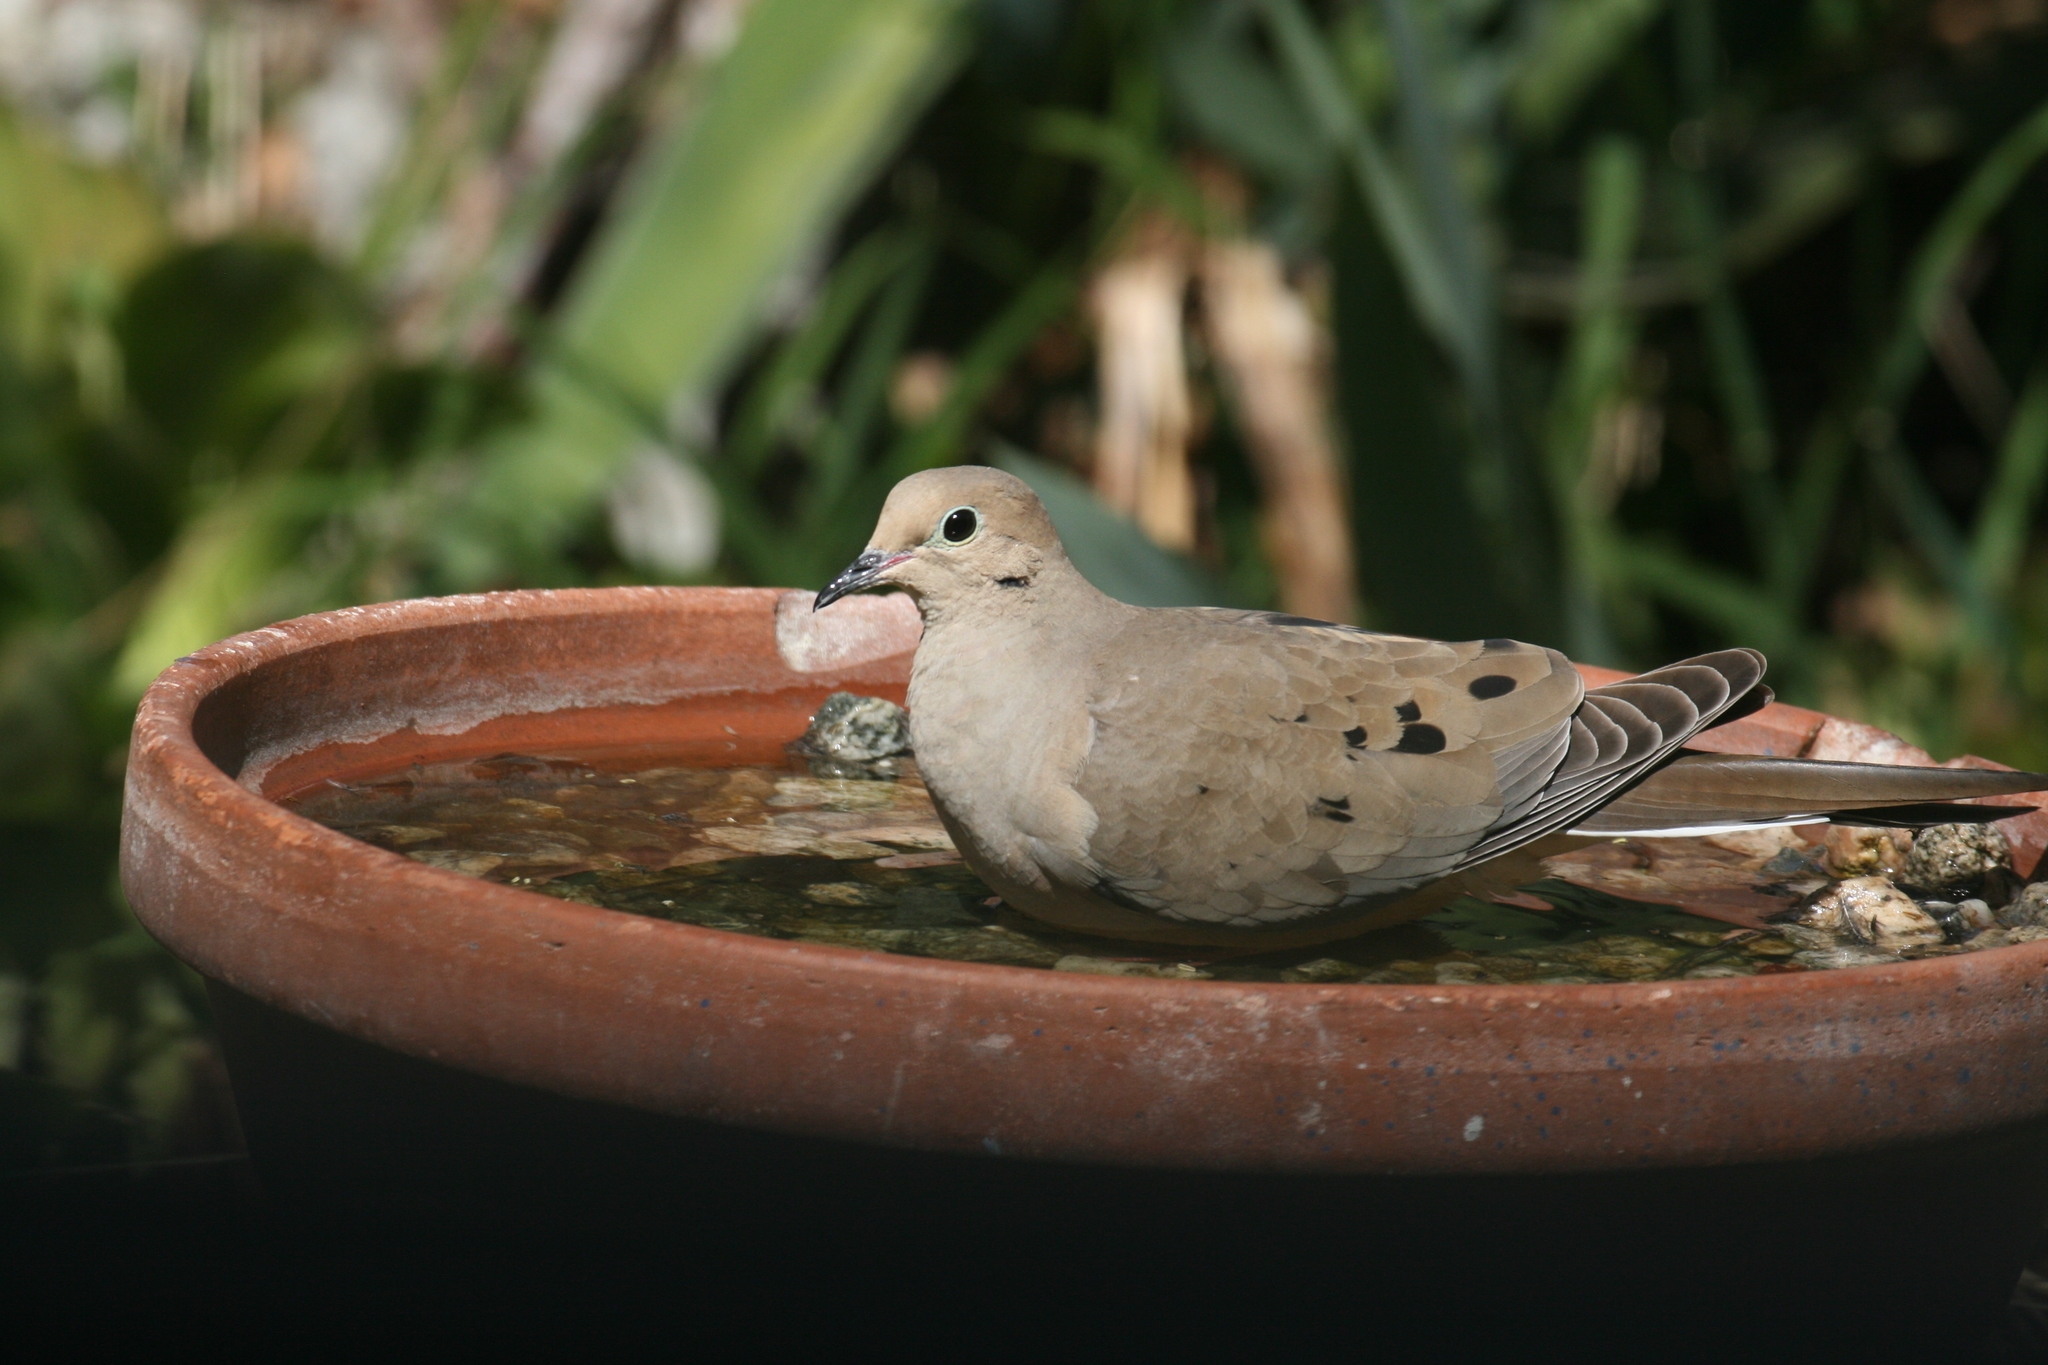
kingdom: Animalia
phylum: Chordata
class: Aves
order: Columbiformes
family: Columbidae
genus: Zenaida
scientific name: Zenaida macroura
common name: Mourning dove
